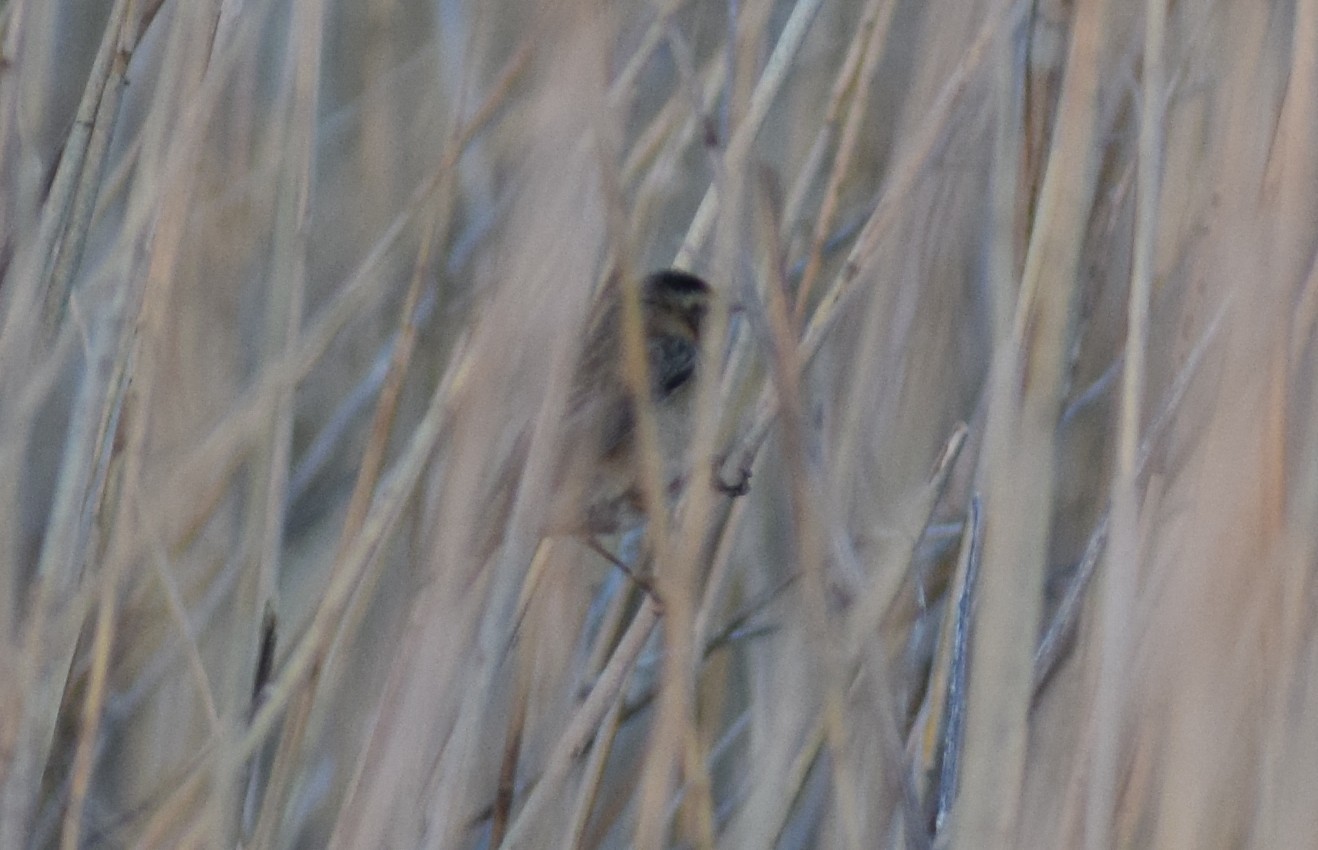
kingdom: Animalia
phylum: Chordata
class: Aves
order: Passeriformes
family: Acrocephalidae
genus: Acrocephalus
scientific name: Acrocephalus schoenobaenus
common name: Sedge warbler
